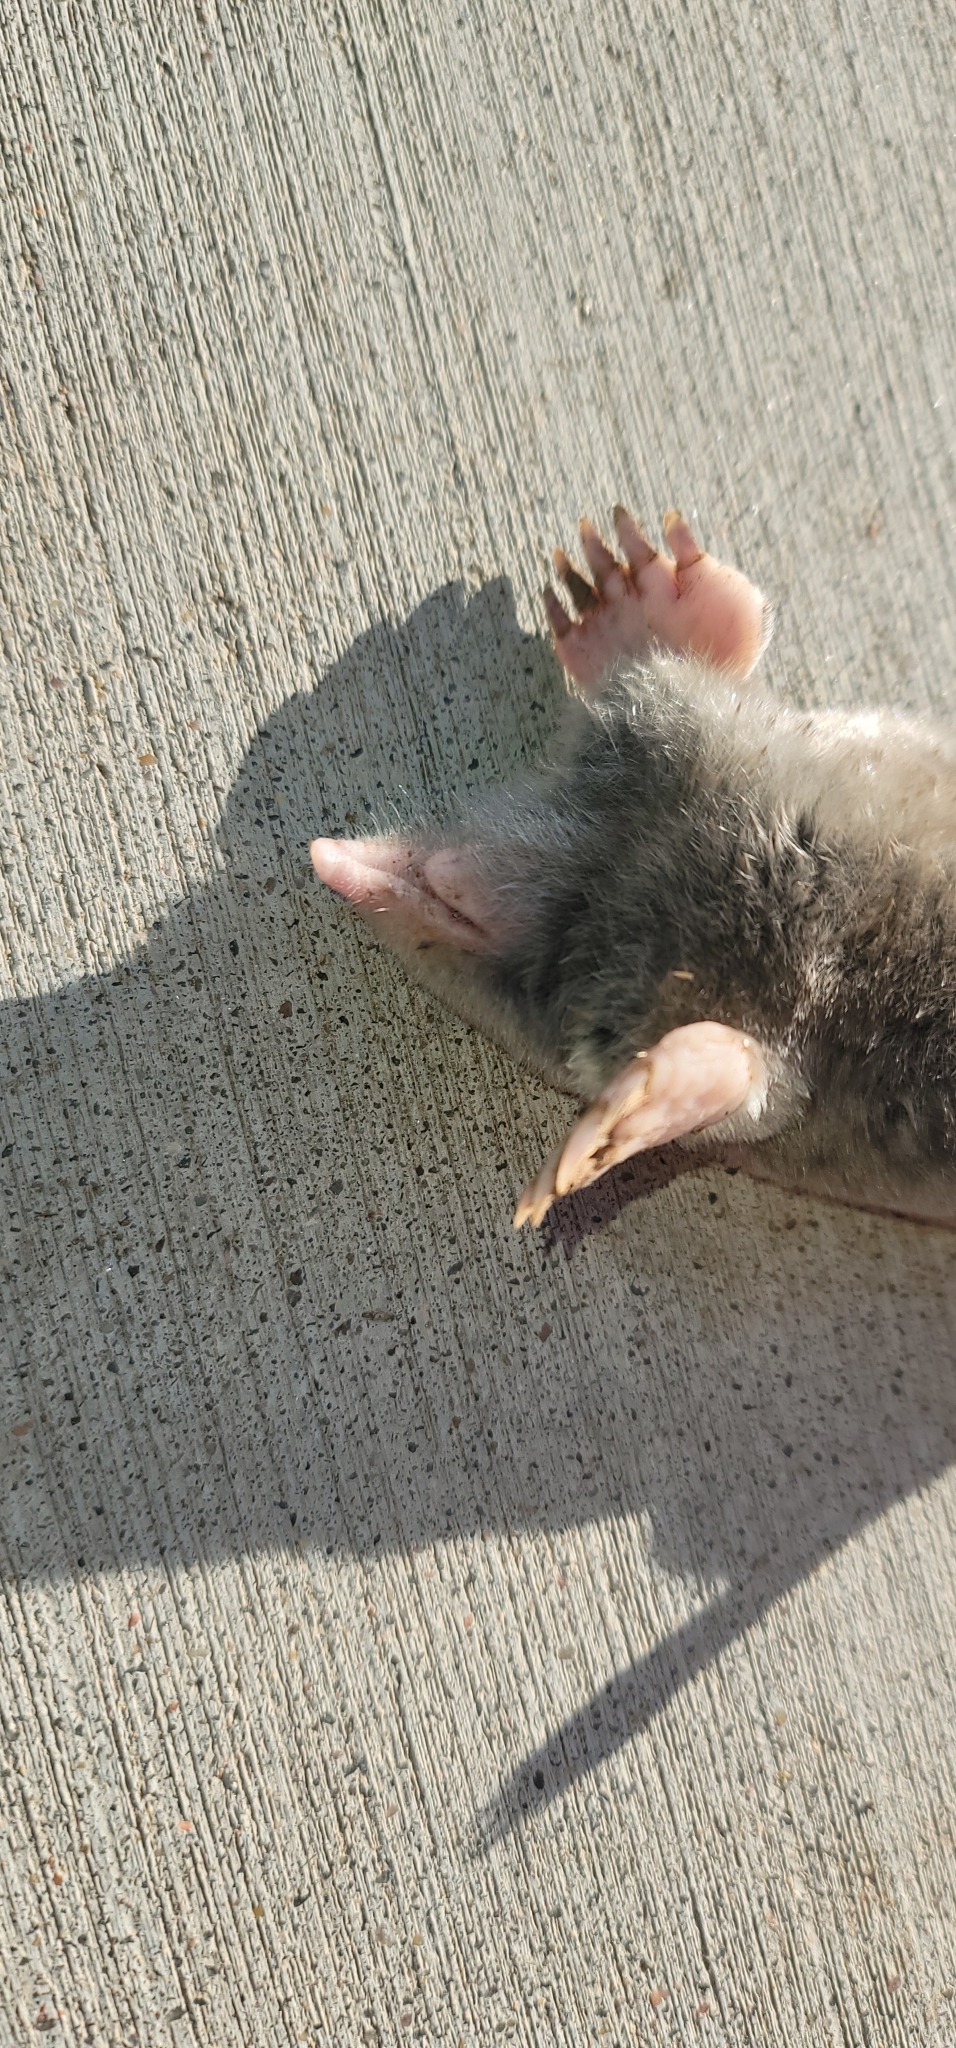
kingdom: Animalia
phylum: Chordata
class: Mammalia
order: Soricomorpha
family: Talpidae
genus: Scalopus
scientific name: Scalopus aquaticus
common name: Eastern mole
